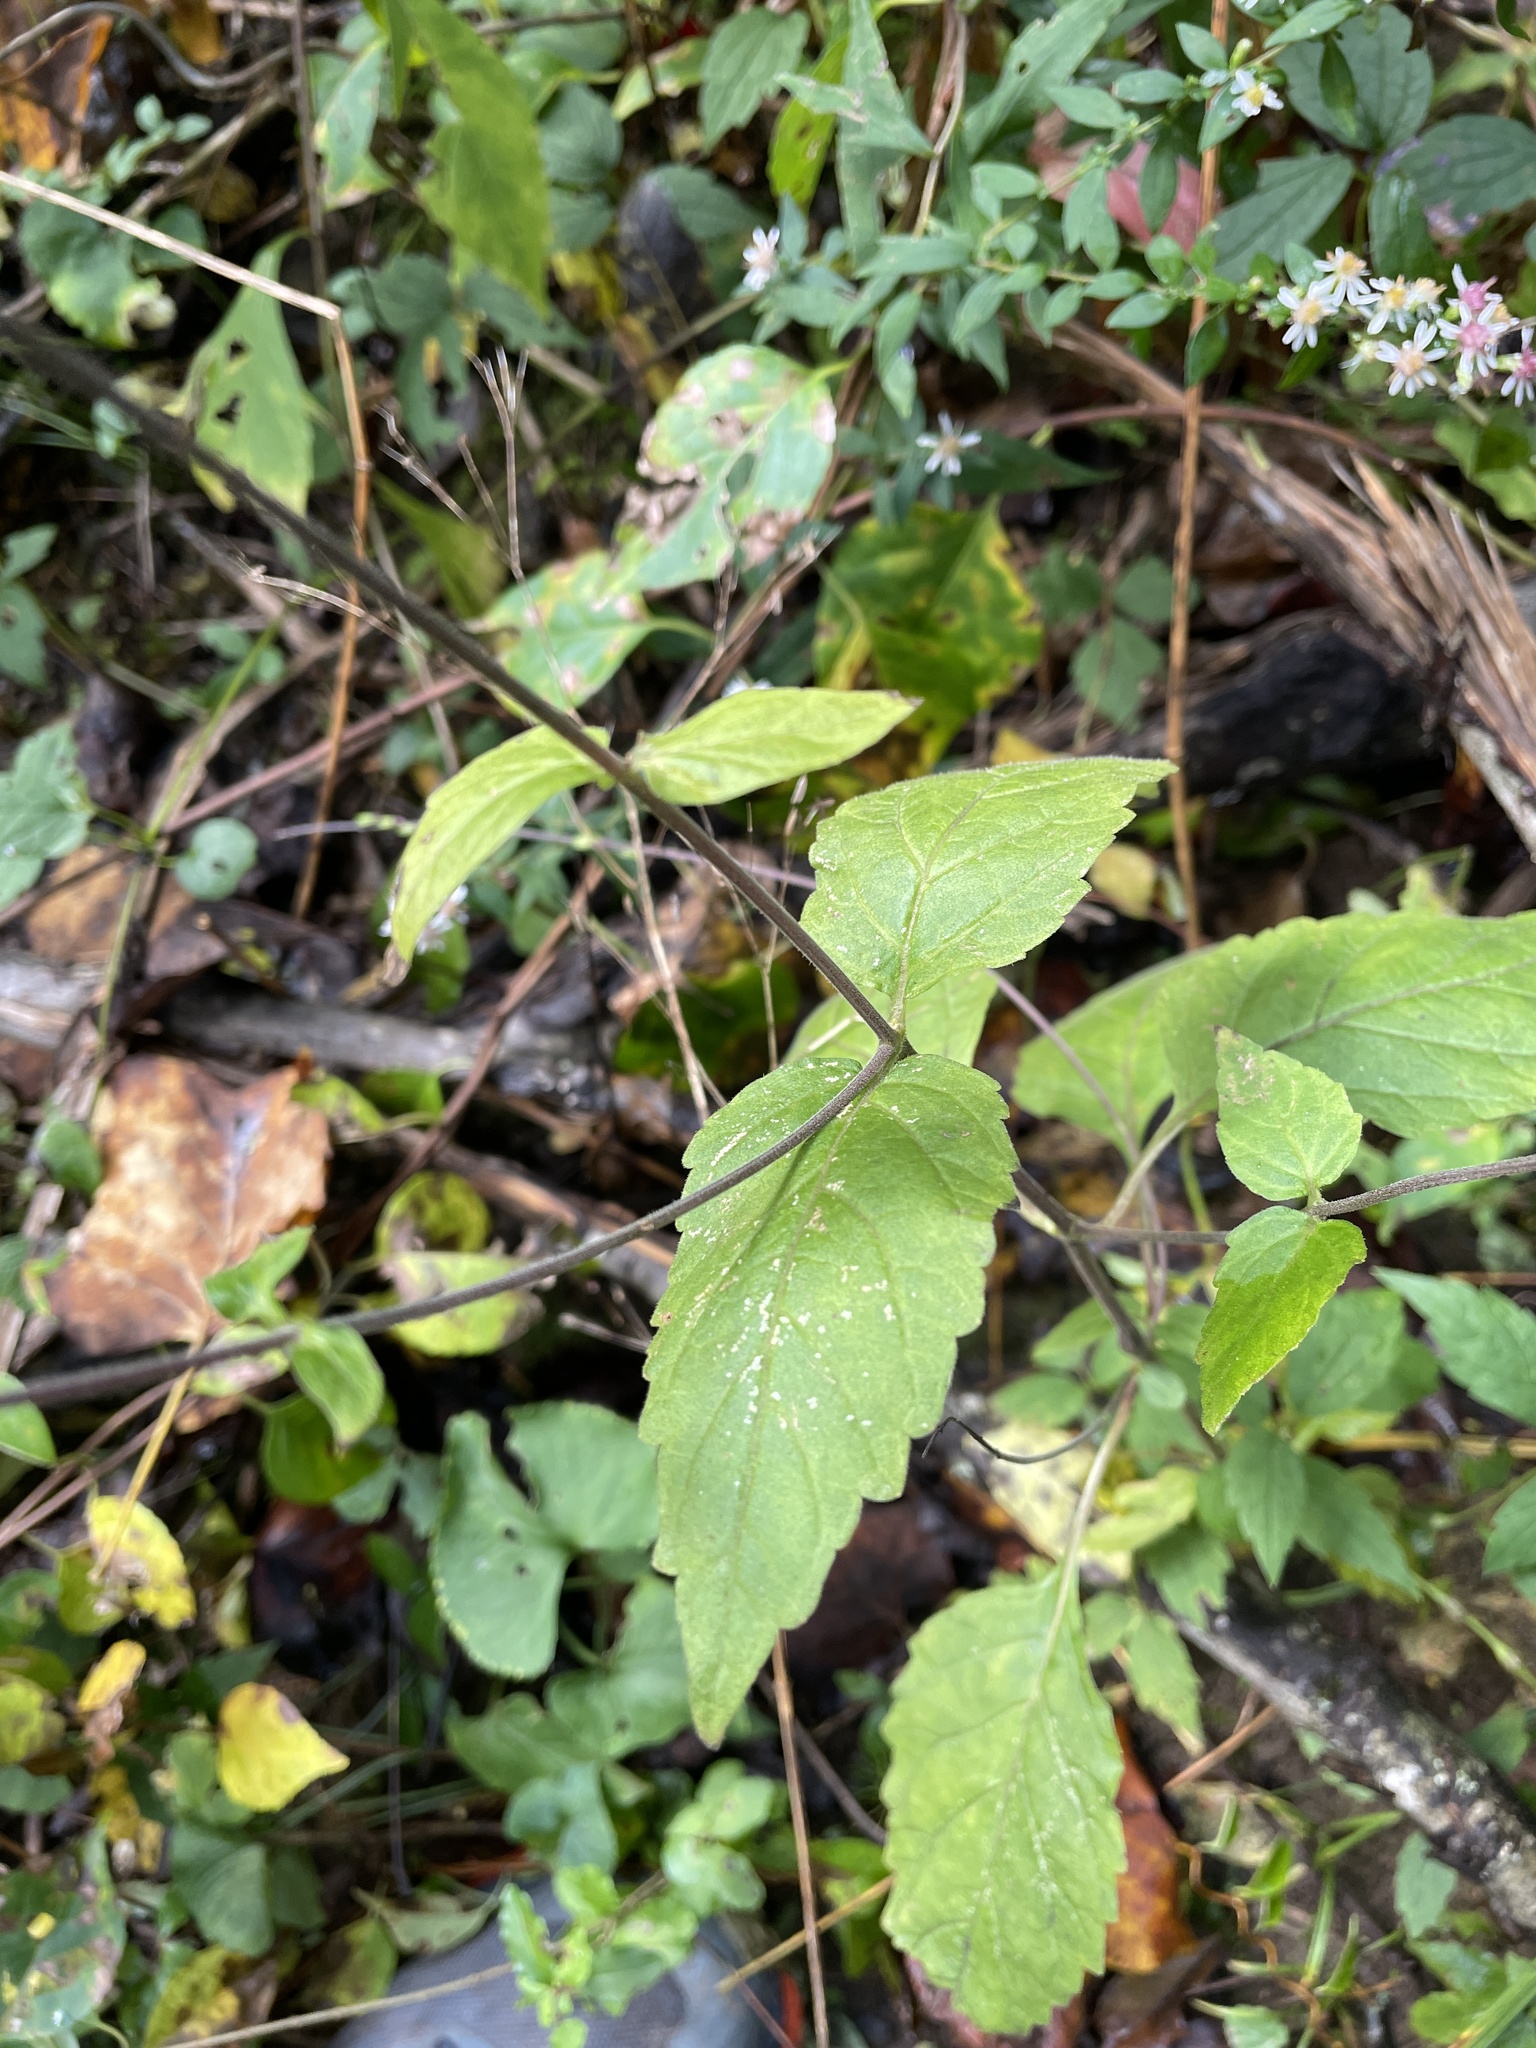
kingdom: Plantae
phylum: Tracheophyta
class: Magnoliopsida
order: Lamiales
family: Phrymaceae
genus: Phryma
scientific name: Phryma leptostachya
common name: American lopseed
